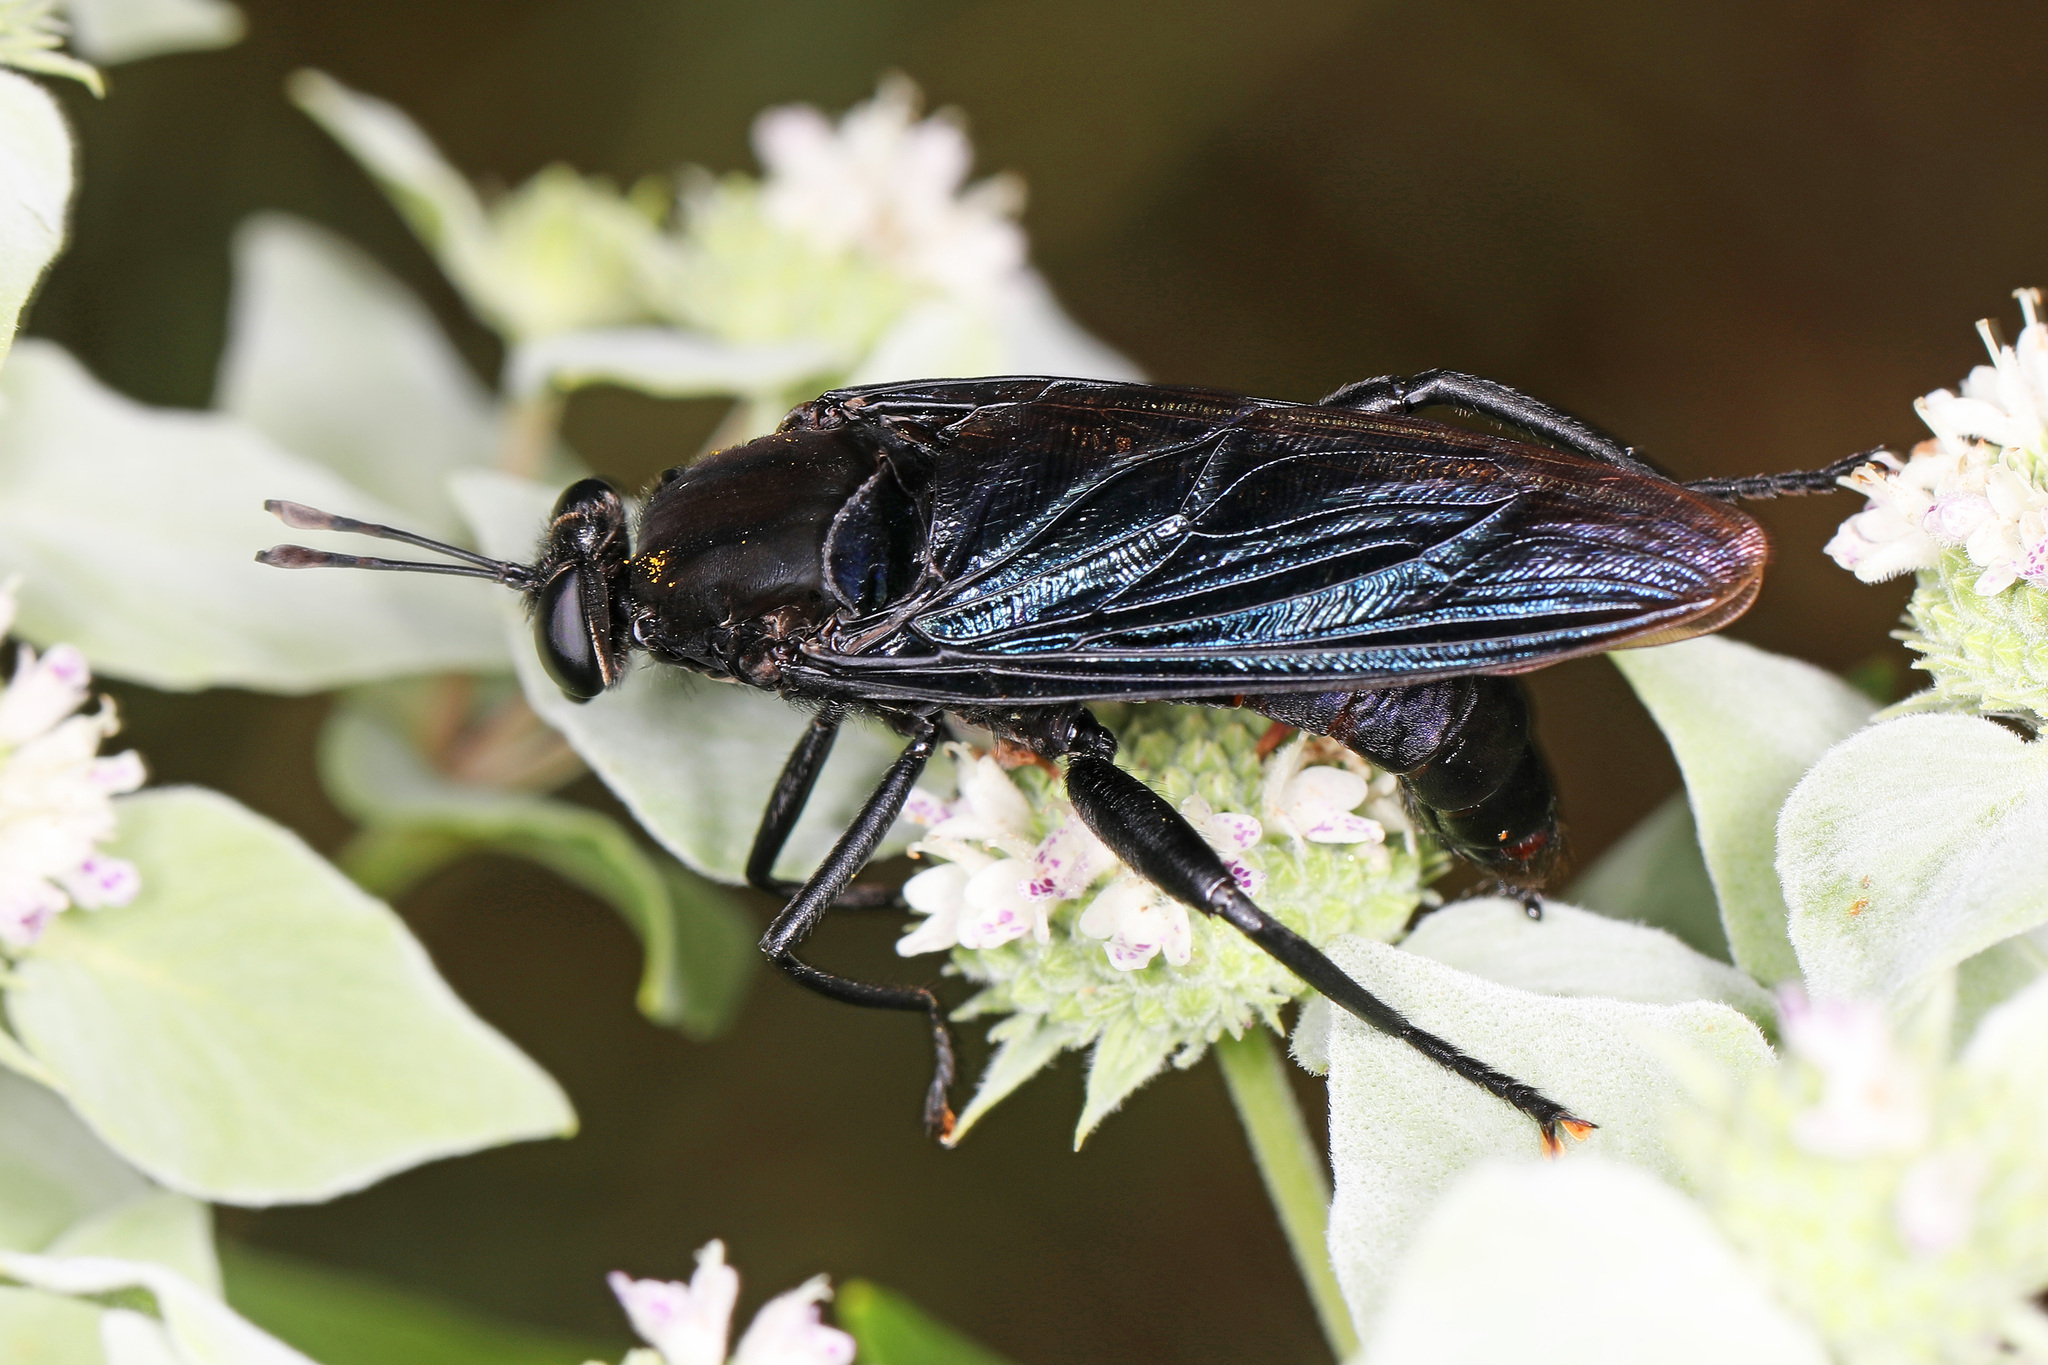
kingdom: Animalia
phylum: Arthropoda
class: Insecta
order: Diptera
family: Mydidae
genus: Mydas
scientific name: Mydas clavatus
